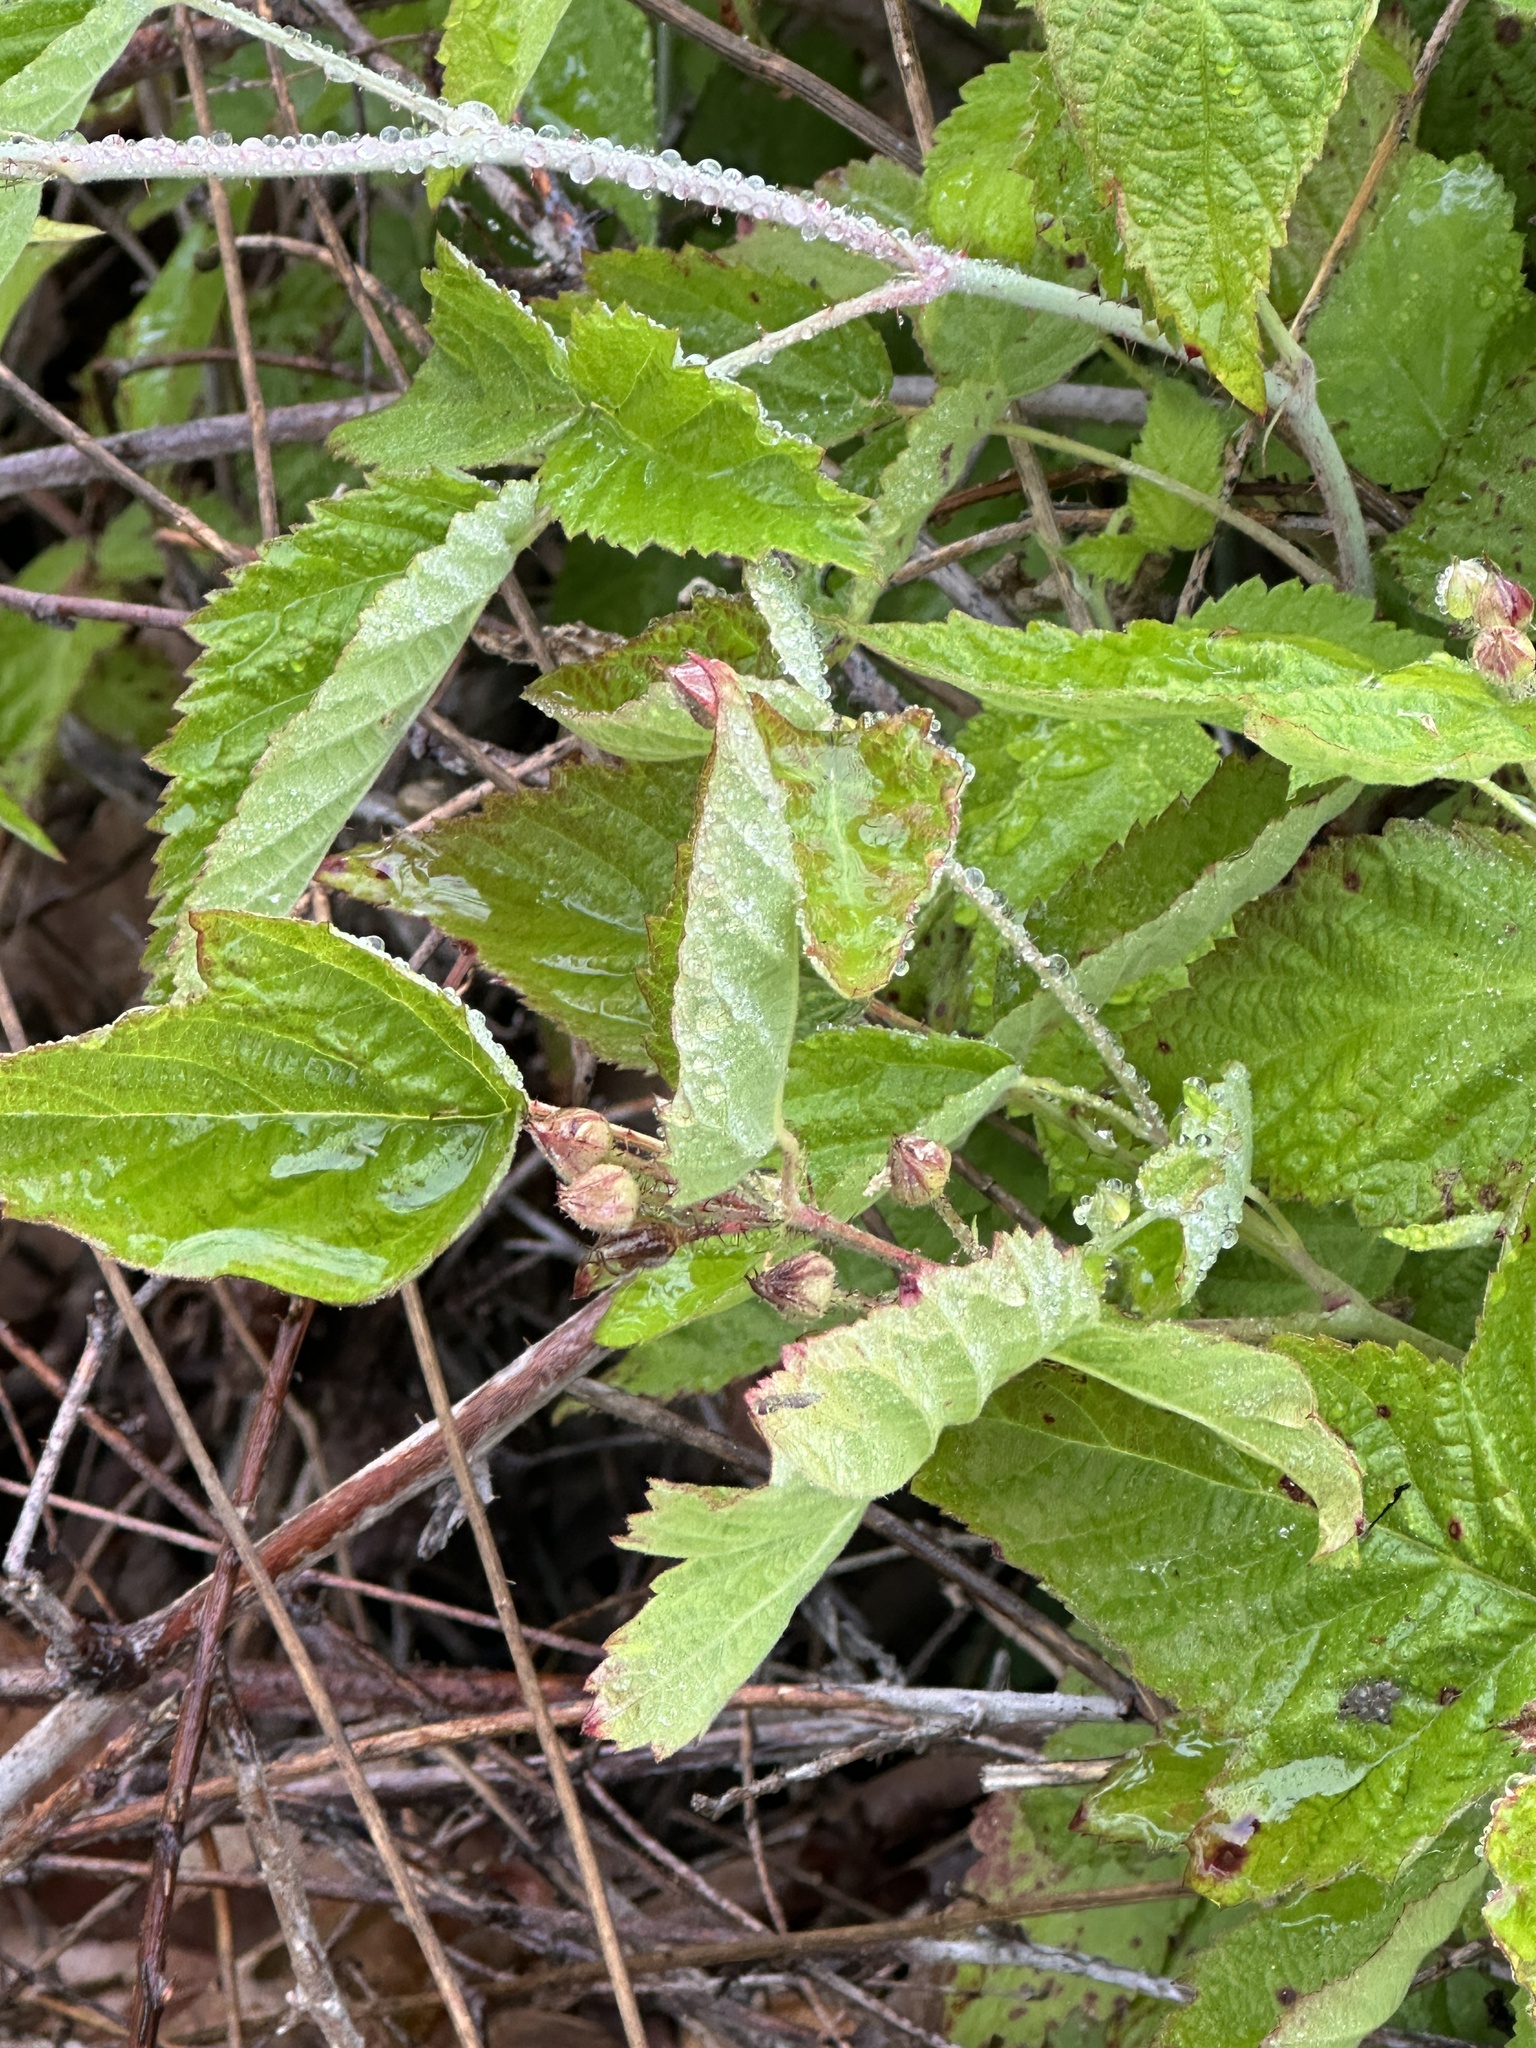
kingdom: Plantae
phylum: Tracheophyta
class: Magnoliopsida
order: Rosales
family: Rosaceae
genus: Rubus
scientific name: Rubus ursinus
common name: Pacific blackberry
